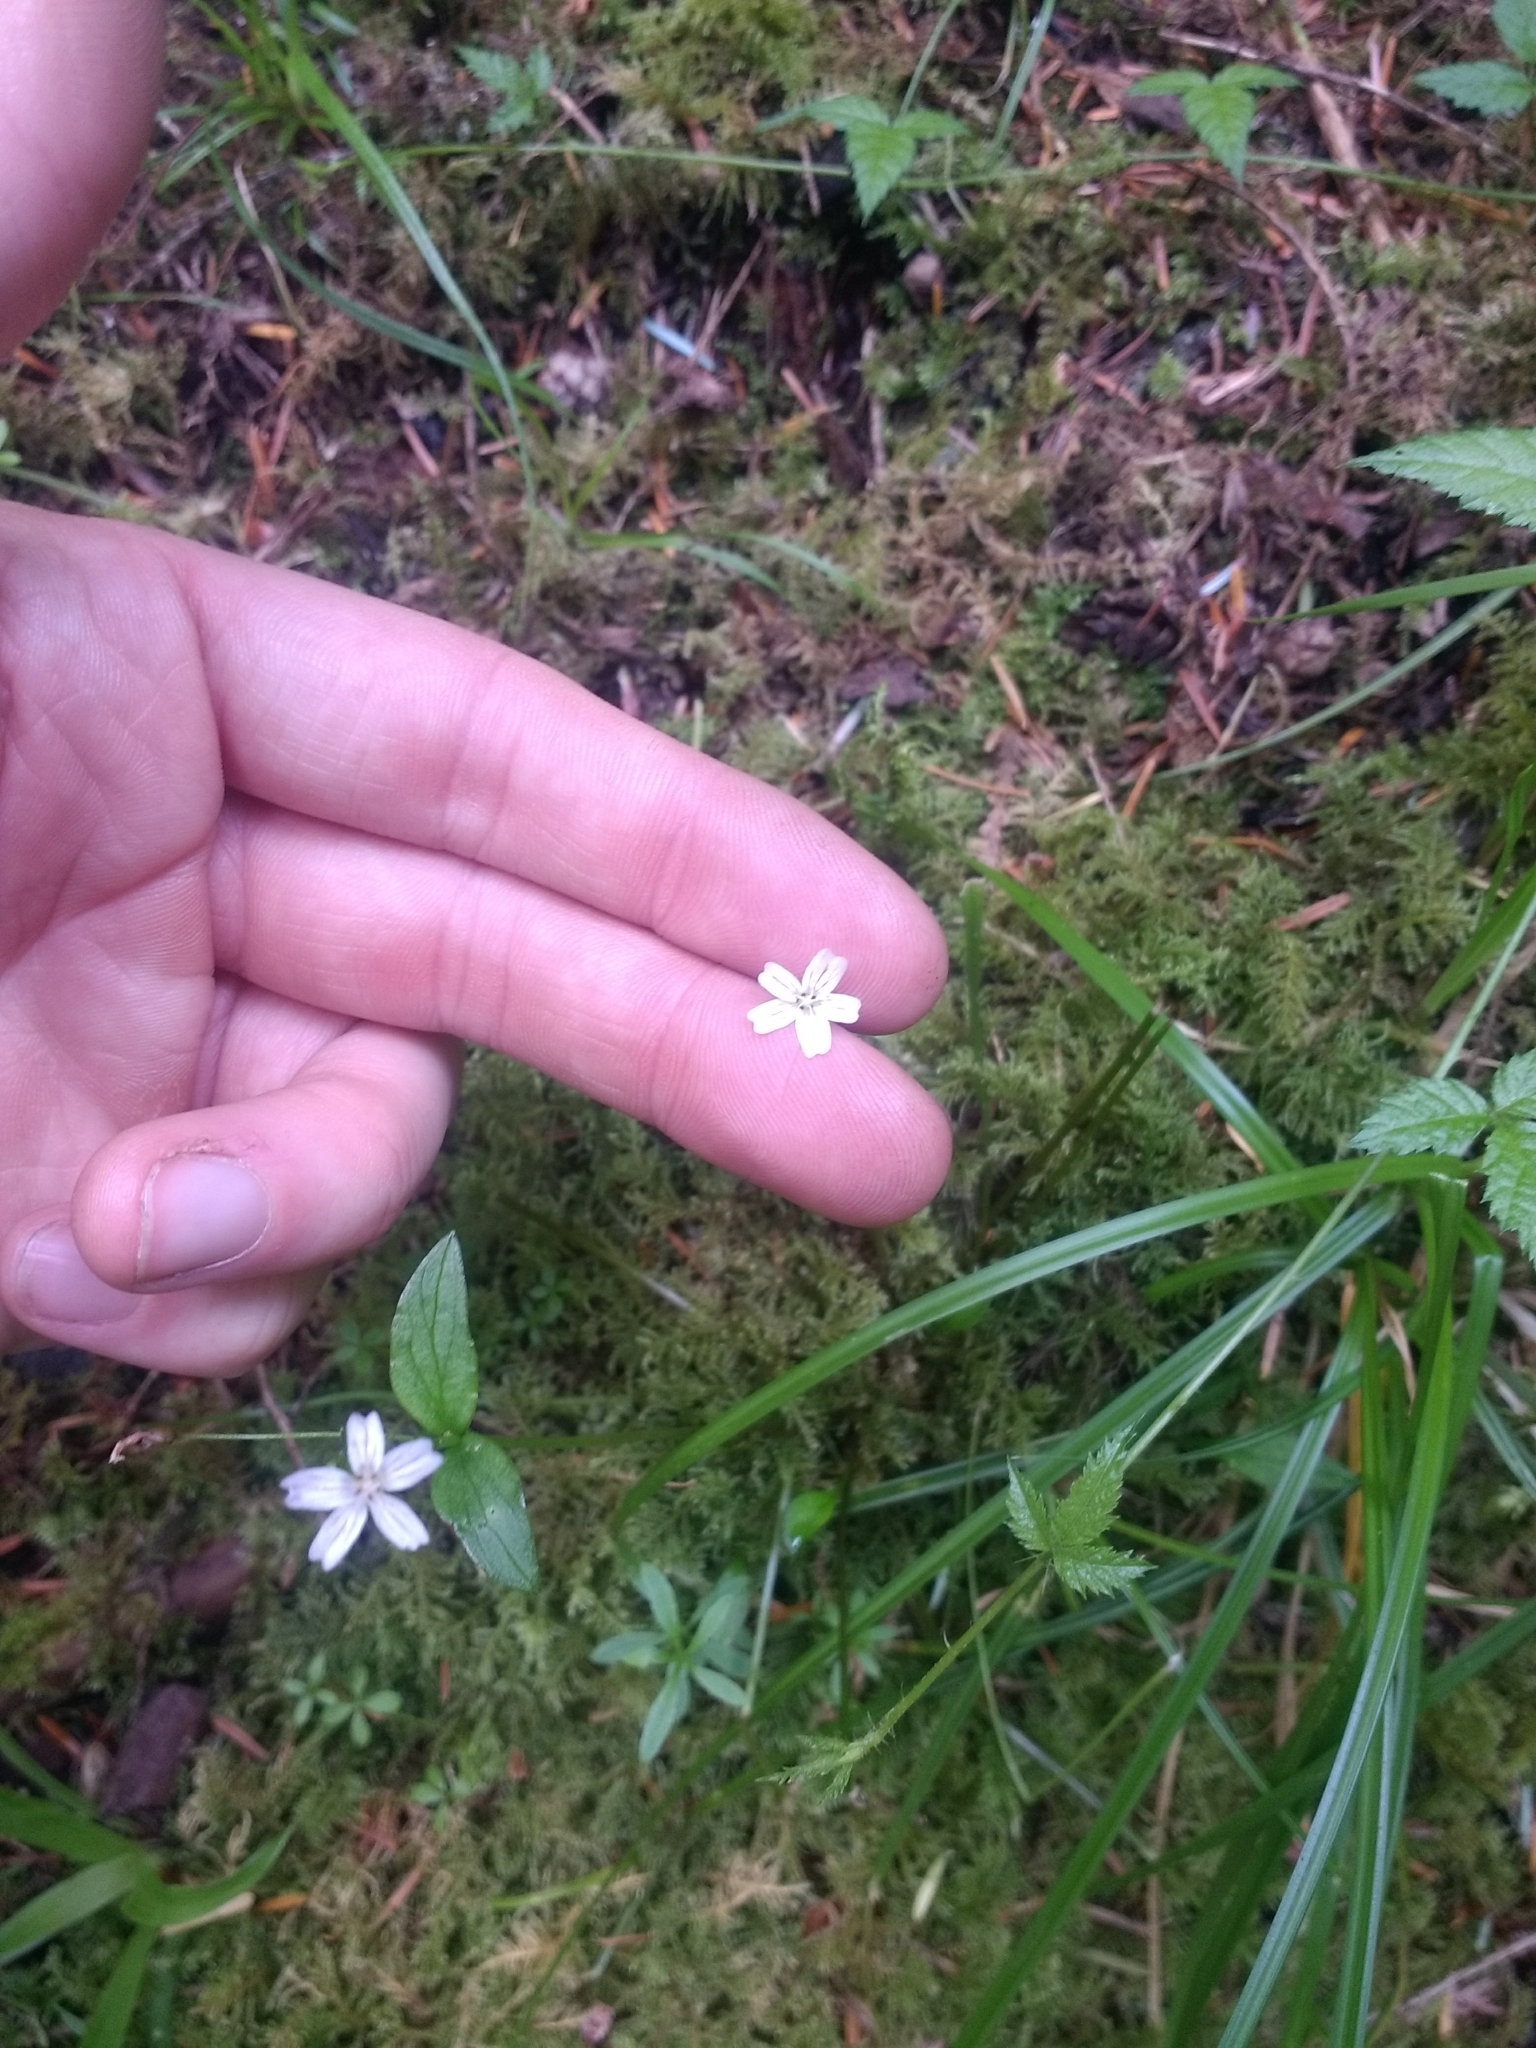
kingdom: Plantae
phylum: Tracheophyta
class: Magnoliopsida
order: Caryophyllales
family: Montiaceae
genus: Claytonia
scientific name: Claytonia sibirica
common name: Pink purslane
